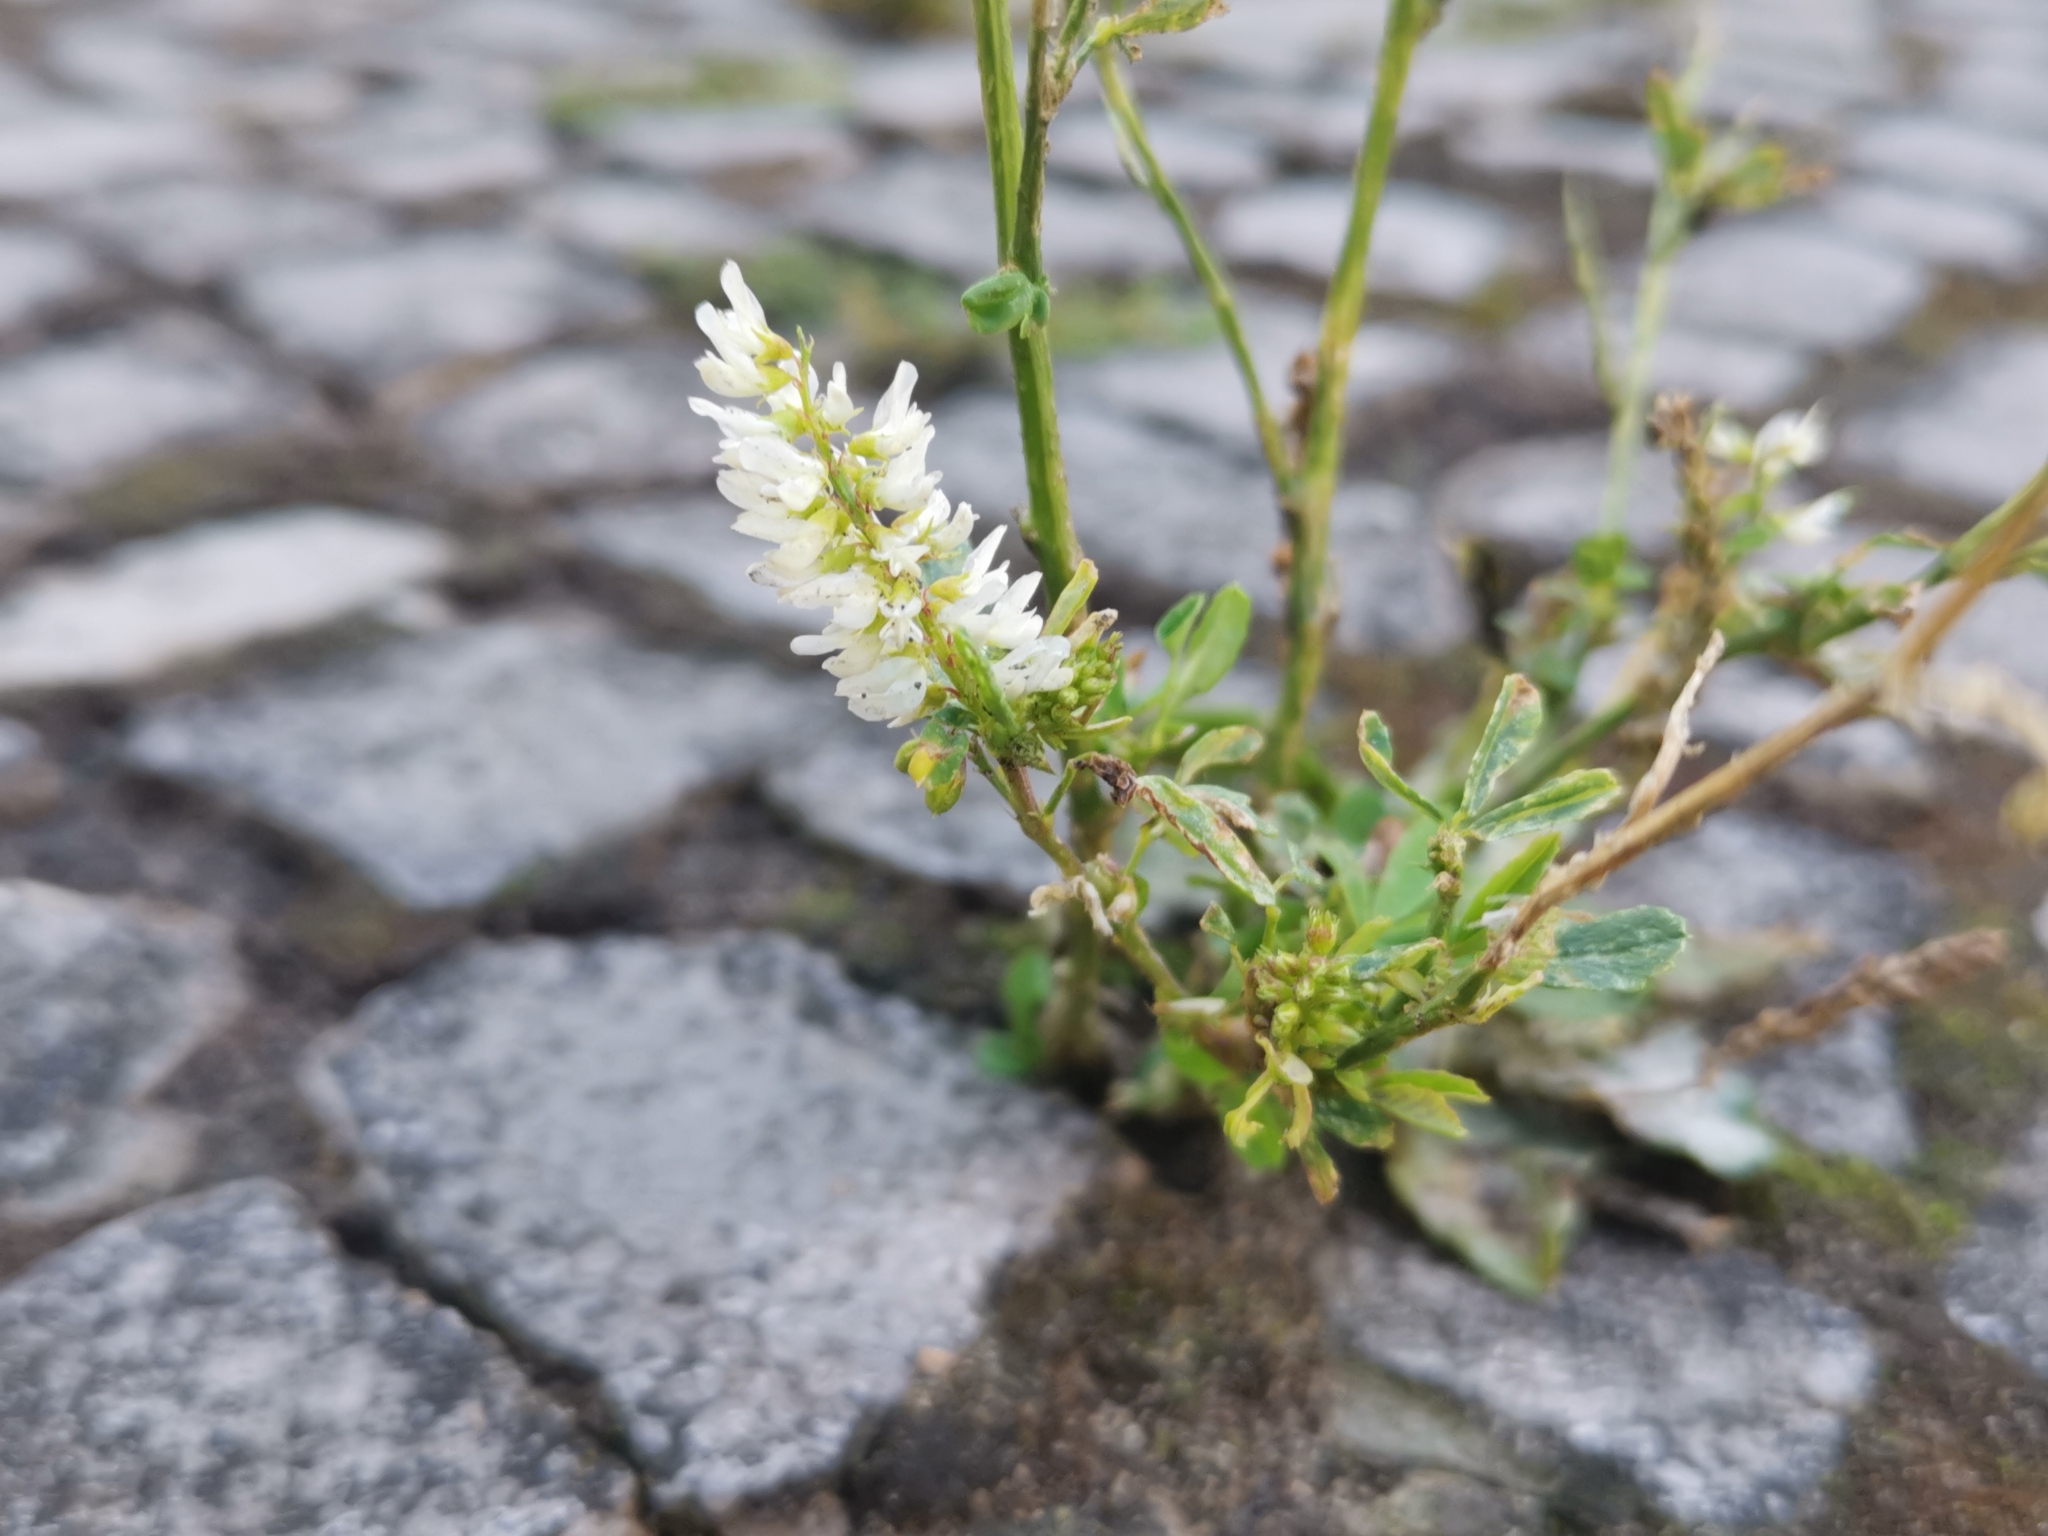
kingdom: Plantae
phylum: Tracheophyta
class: Magnoliopsida
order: Fabales
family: Fabaceae
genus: Melilotus
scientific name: Melilotus albus
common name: White melilot
